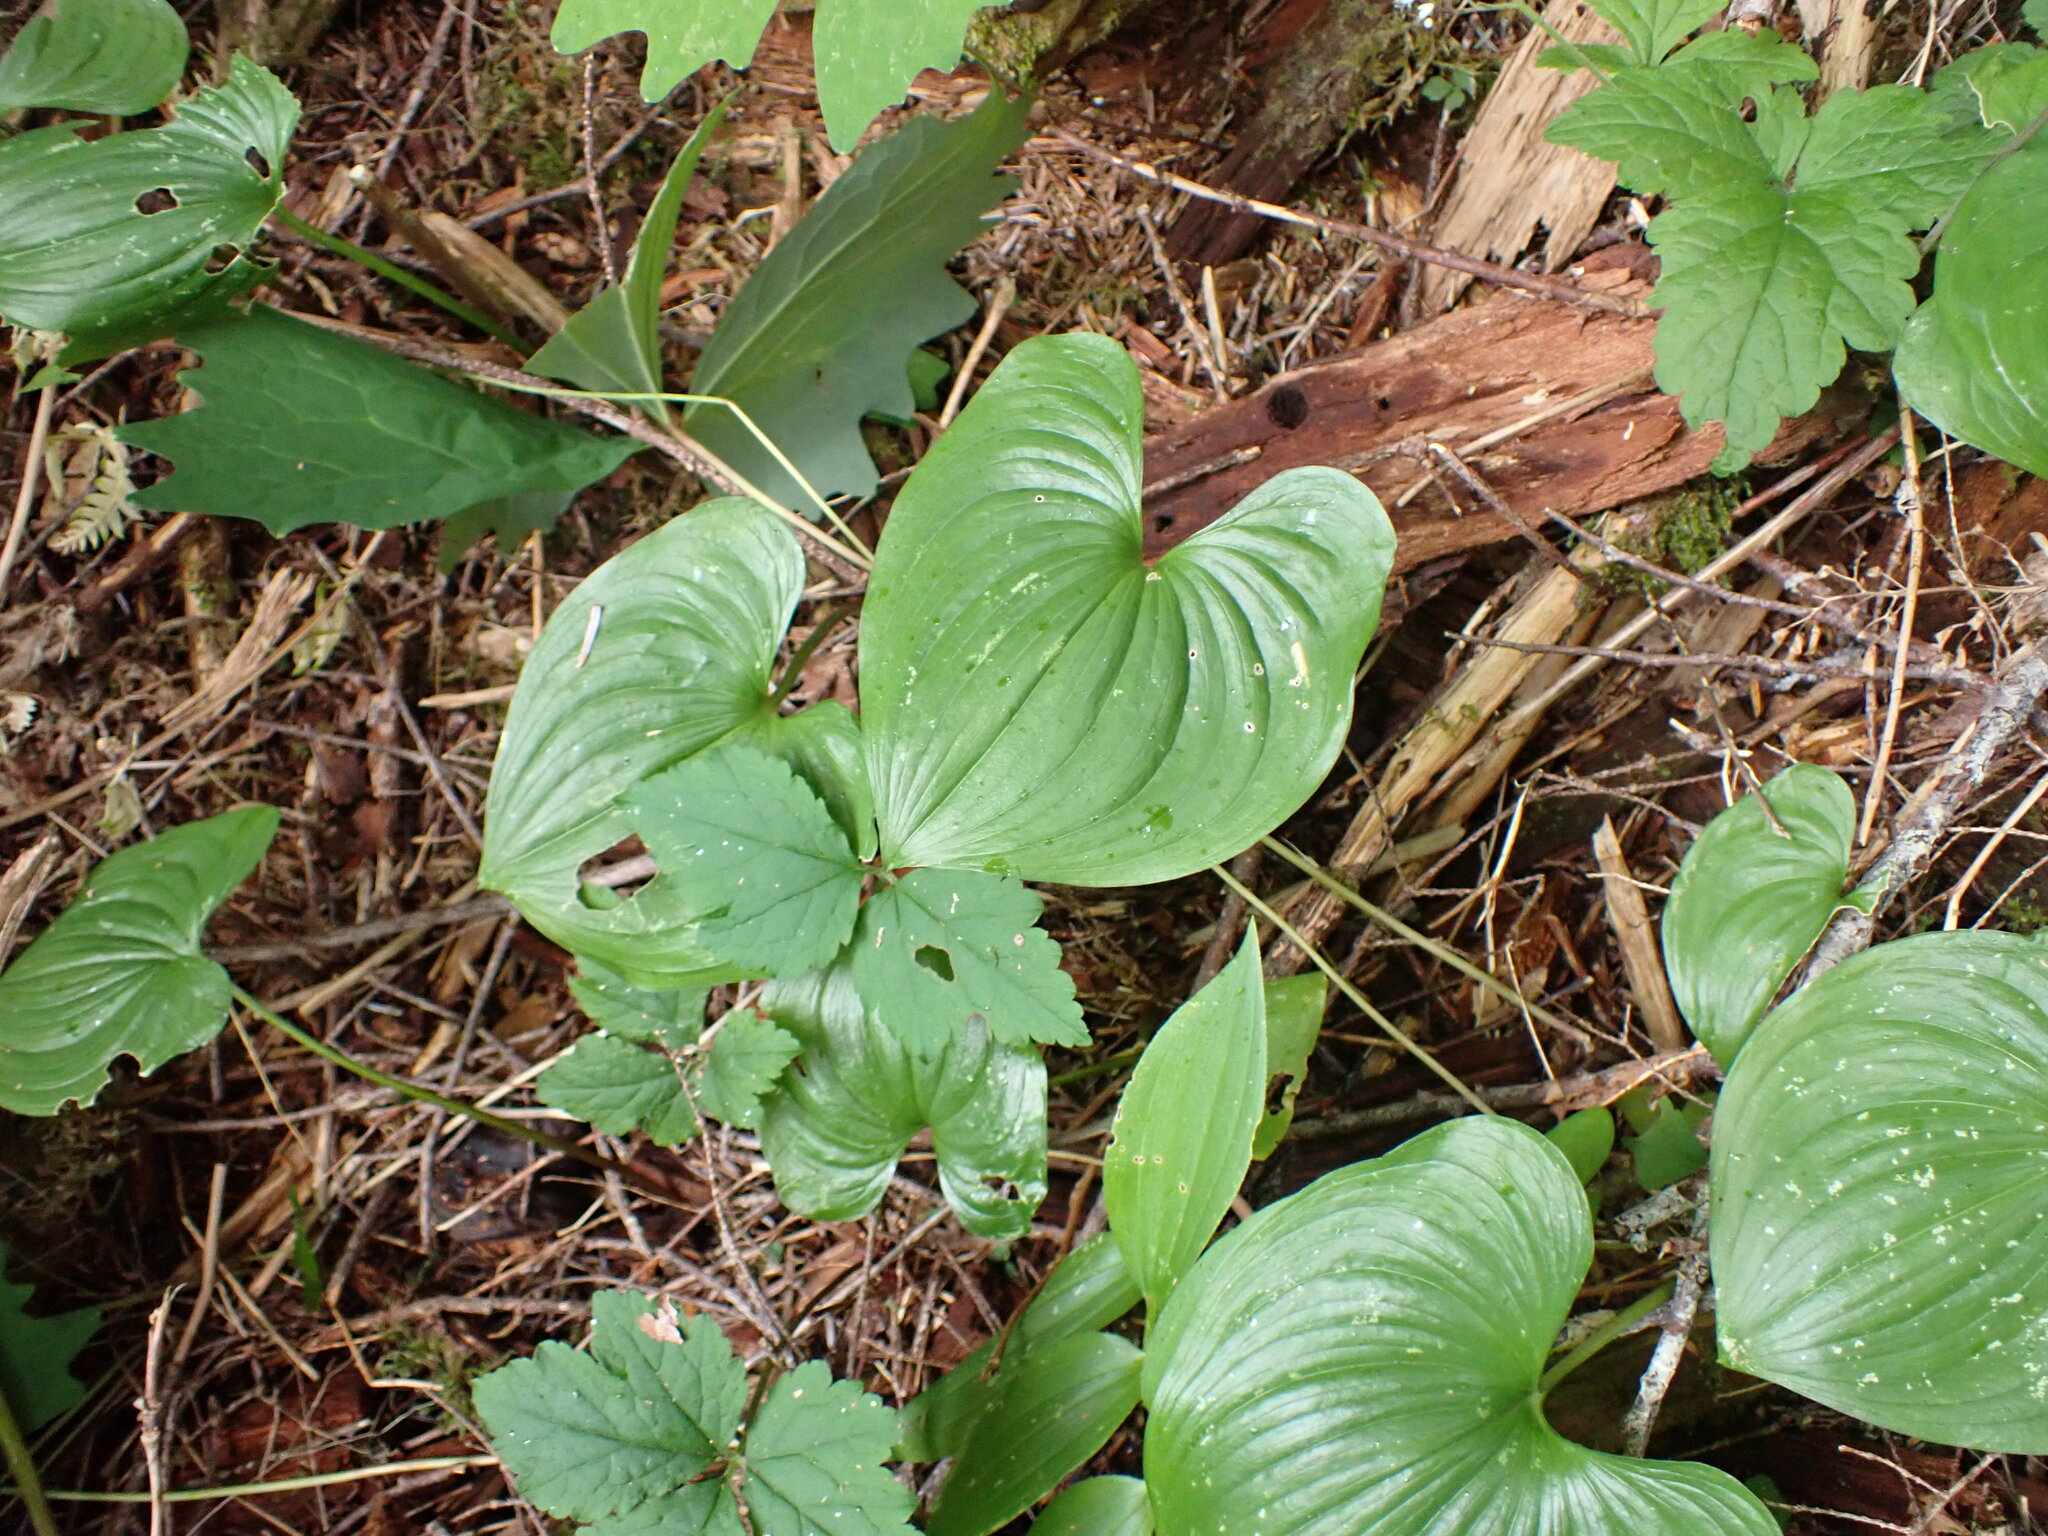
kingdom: Plantae
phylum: Tracheophyta
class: Liliopsida
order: Asparagales
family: Asparagaceae
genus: Maianthemum
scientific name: Maianthemum dilatatum
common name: False lily-of-the-valley
